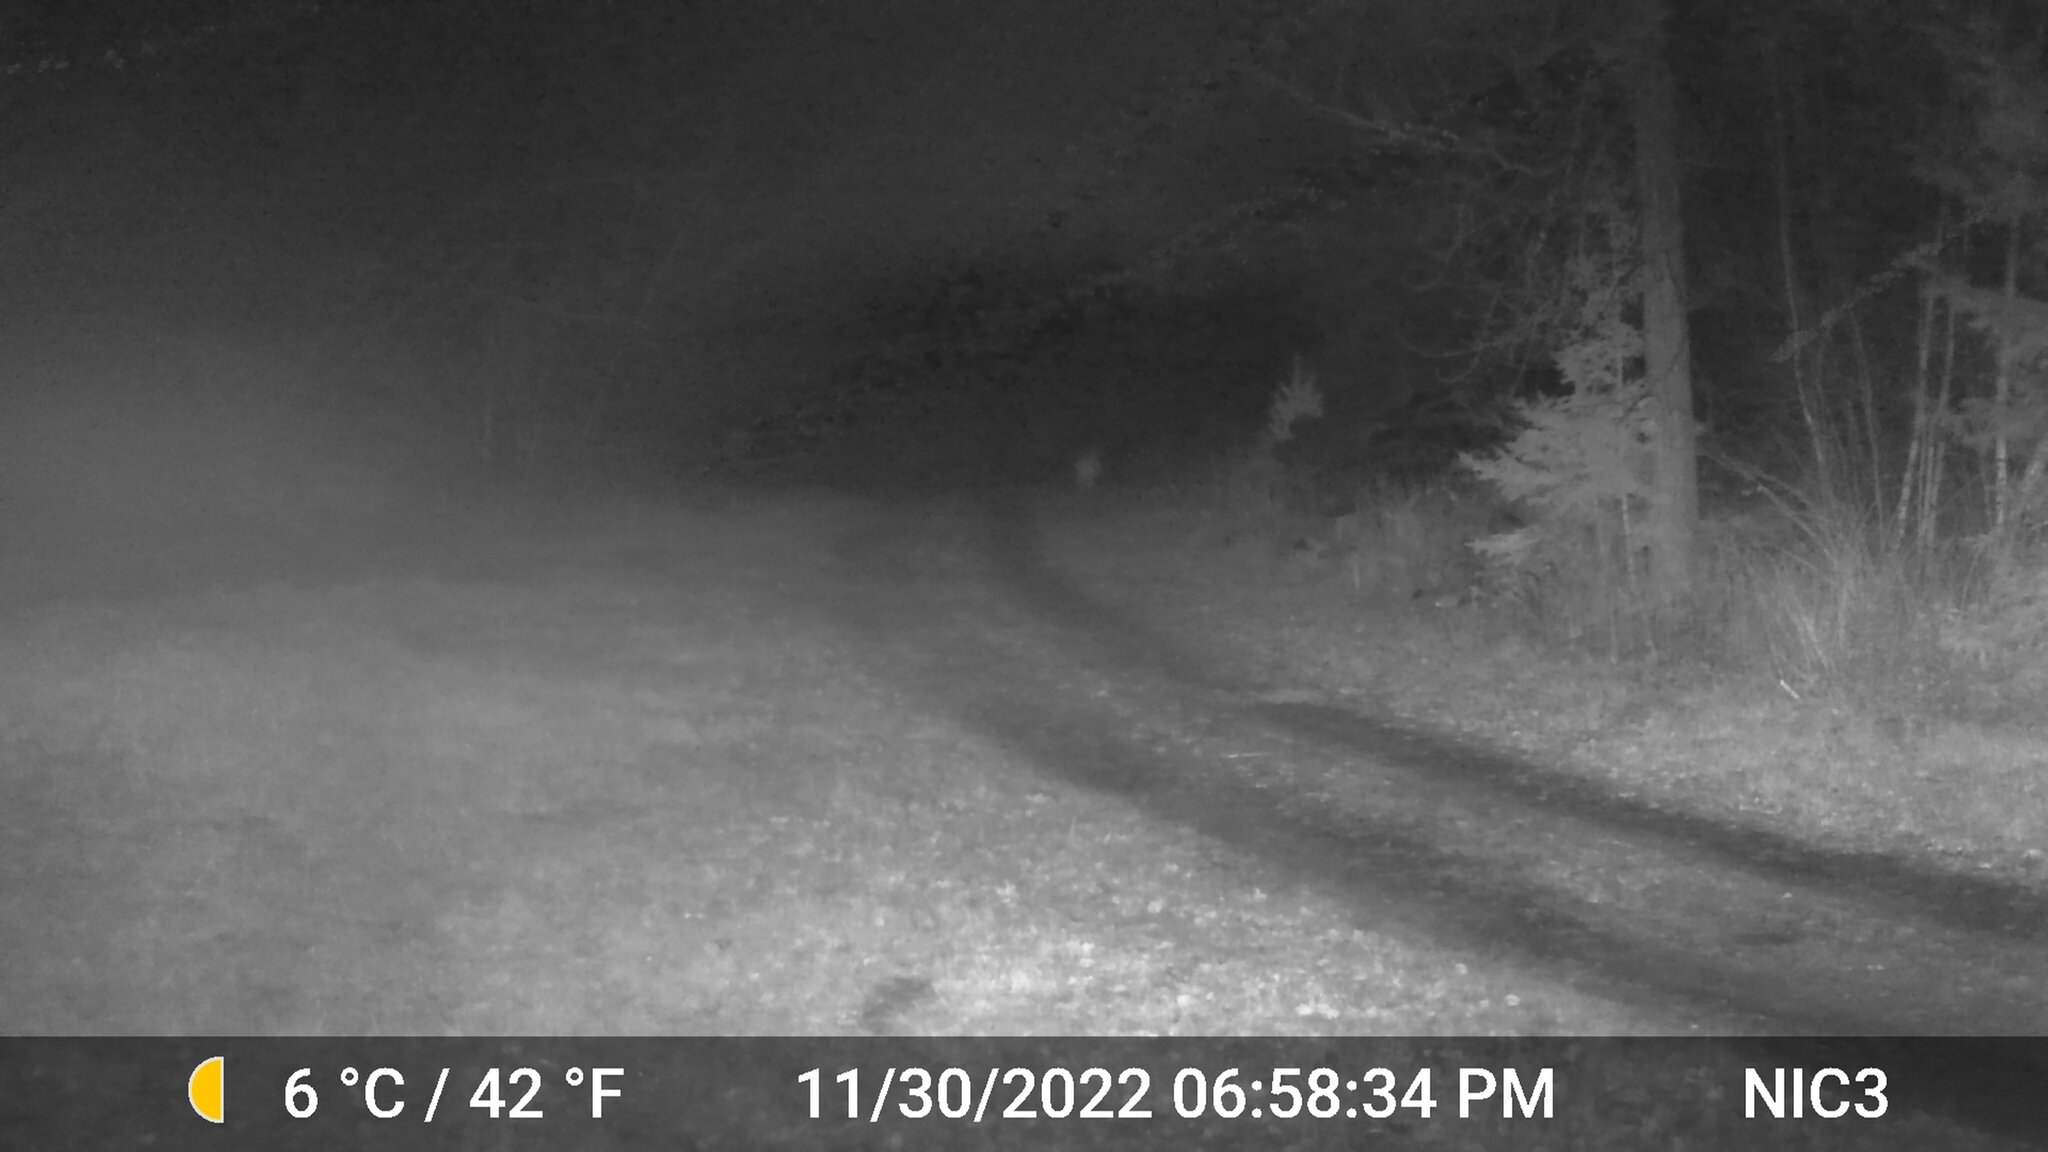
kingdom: Animalia
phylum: Chordata
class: Mammalia
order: Artiodactyla
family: Cervidae
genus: Odocoileus
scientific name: Odocoileus virginianus
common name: White-tailed deer
